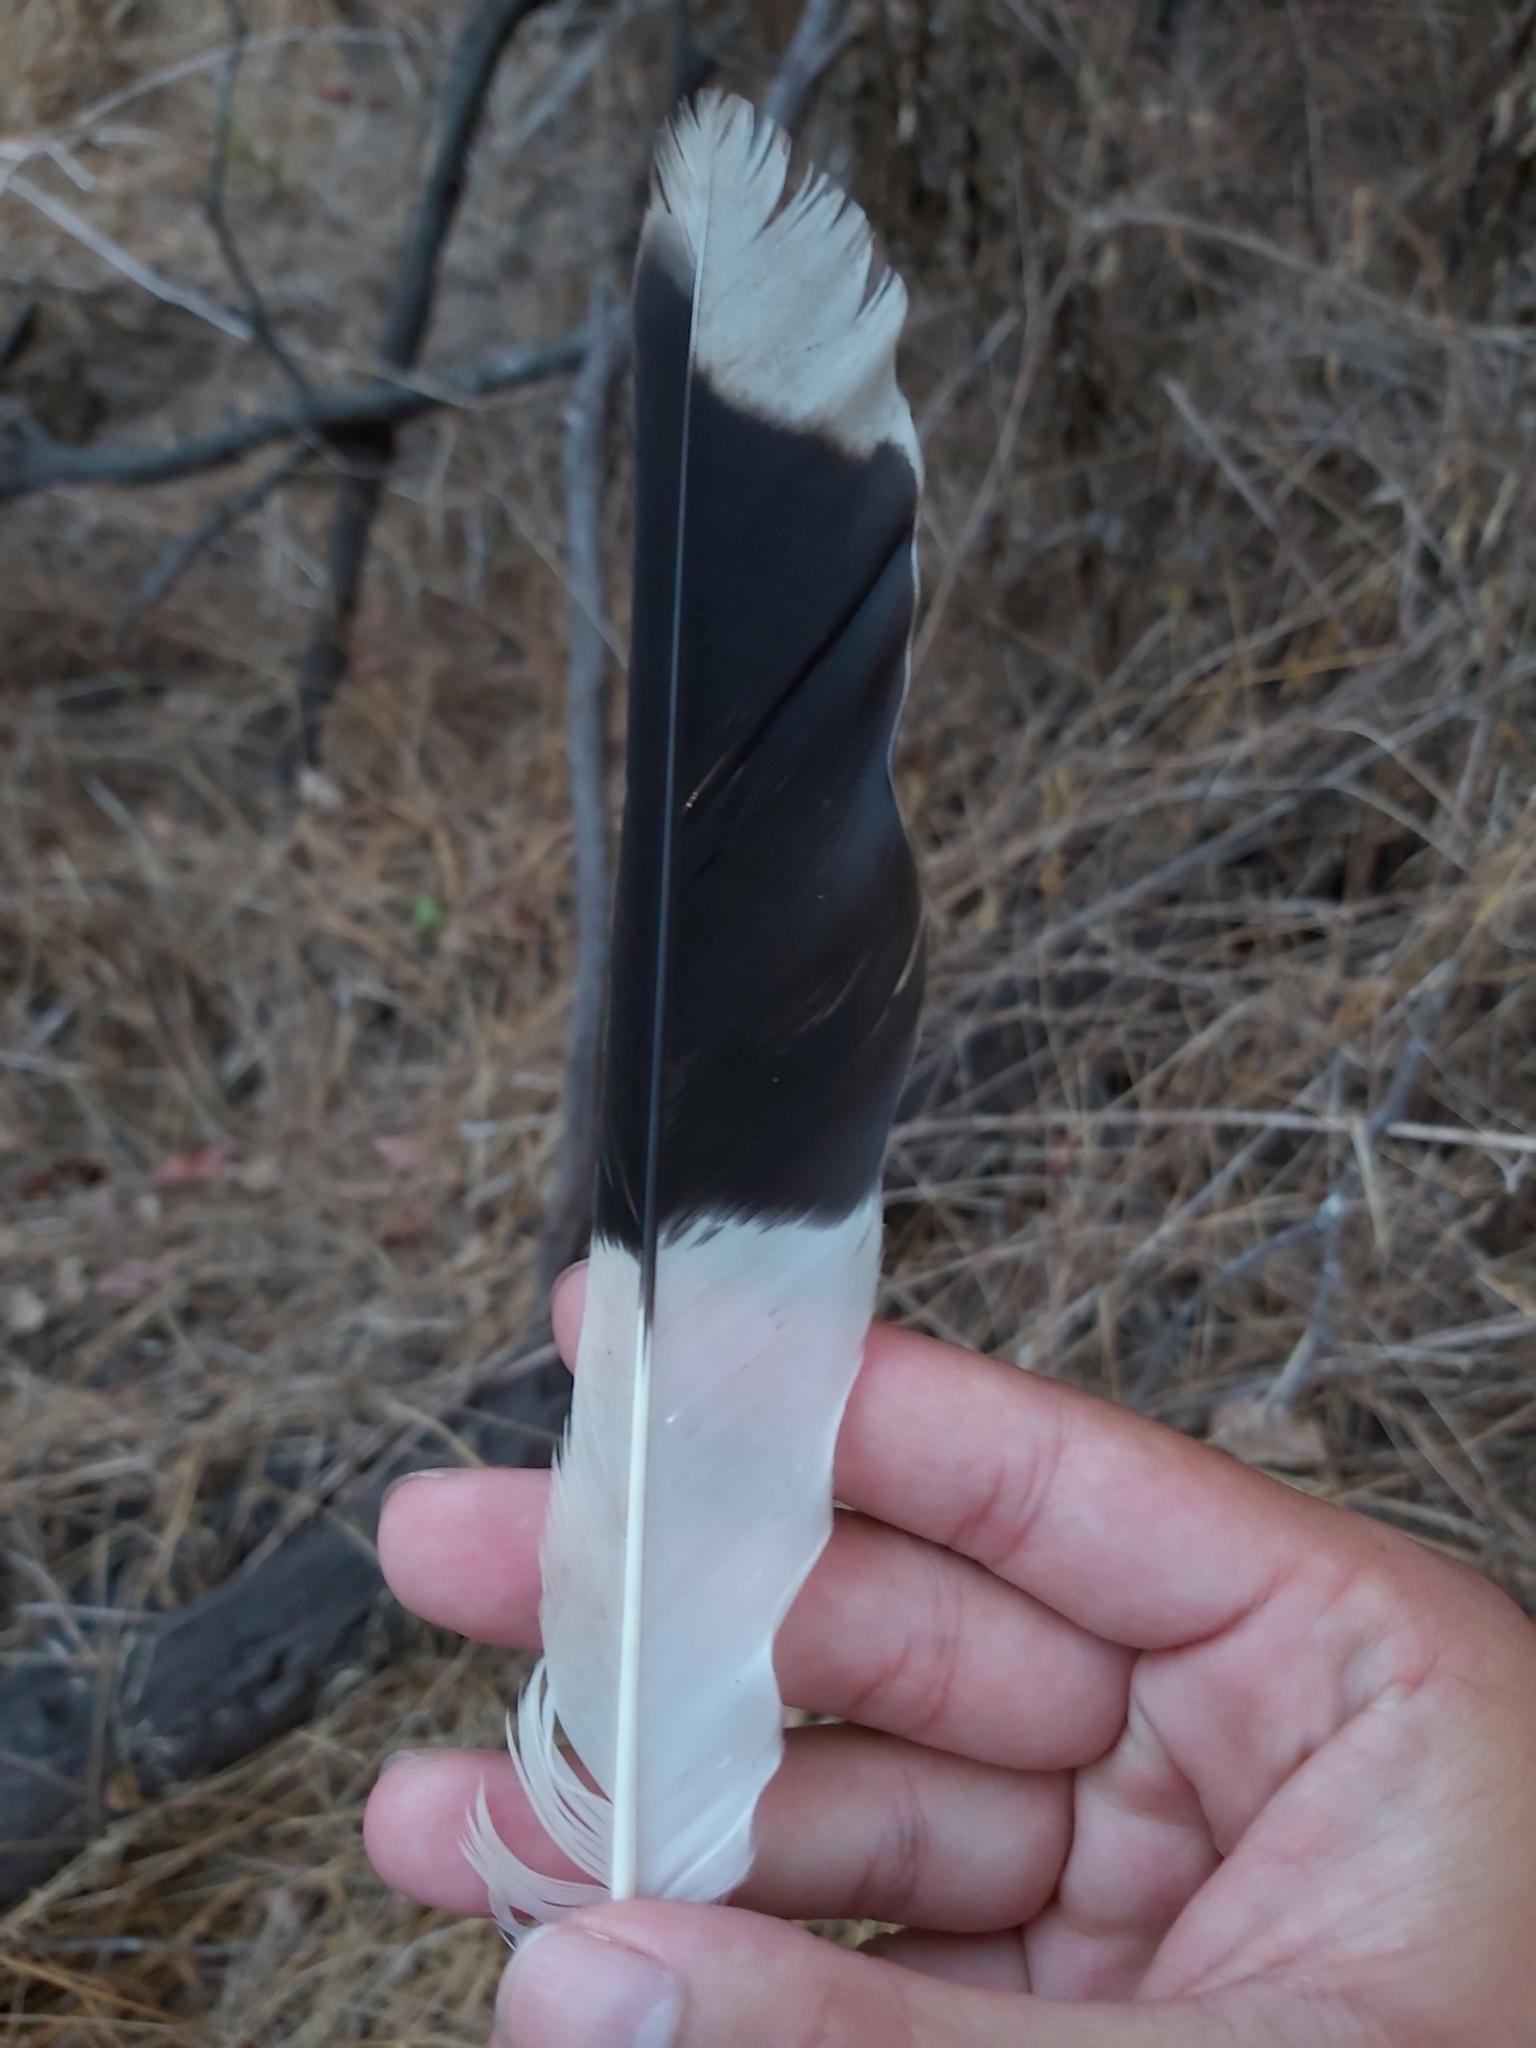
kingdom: Animalia
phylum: Chordata
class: Aves
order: Passeriformes
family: Cracticidae
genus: Strepera
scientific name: Strepera graculina
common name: Pied currawong
